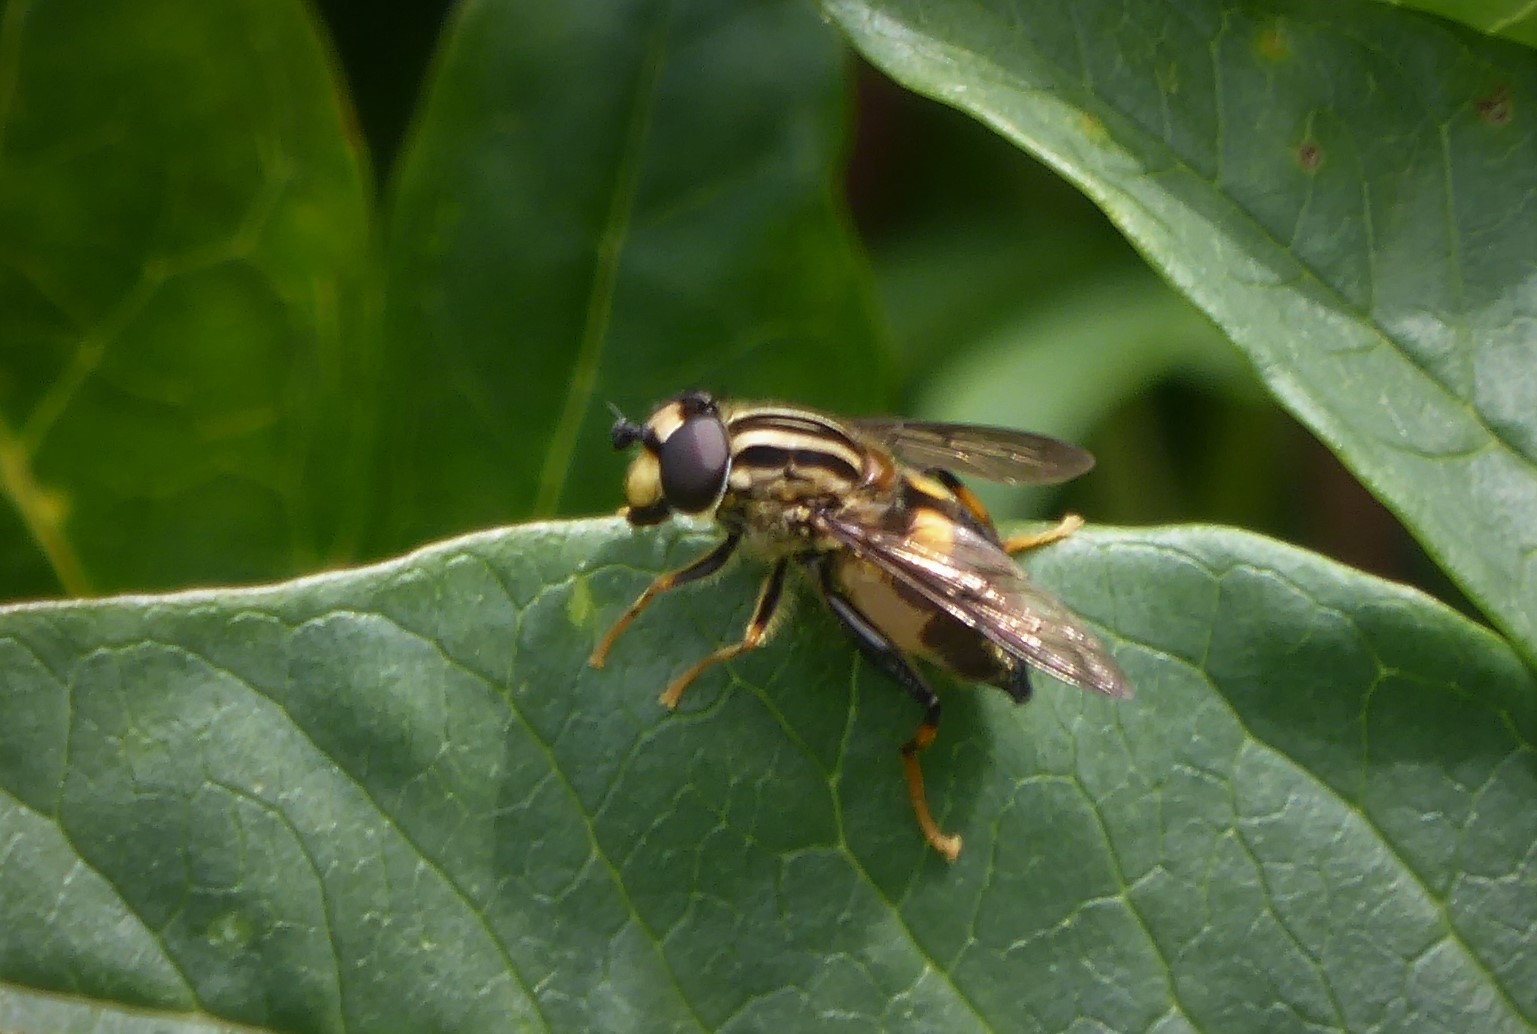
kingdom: Animalia
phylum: Arthropoda
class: Insecta
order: Diptera
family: Syrphidae
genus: Helophilus
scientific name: Helophilus antipodus
